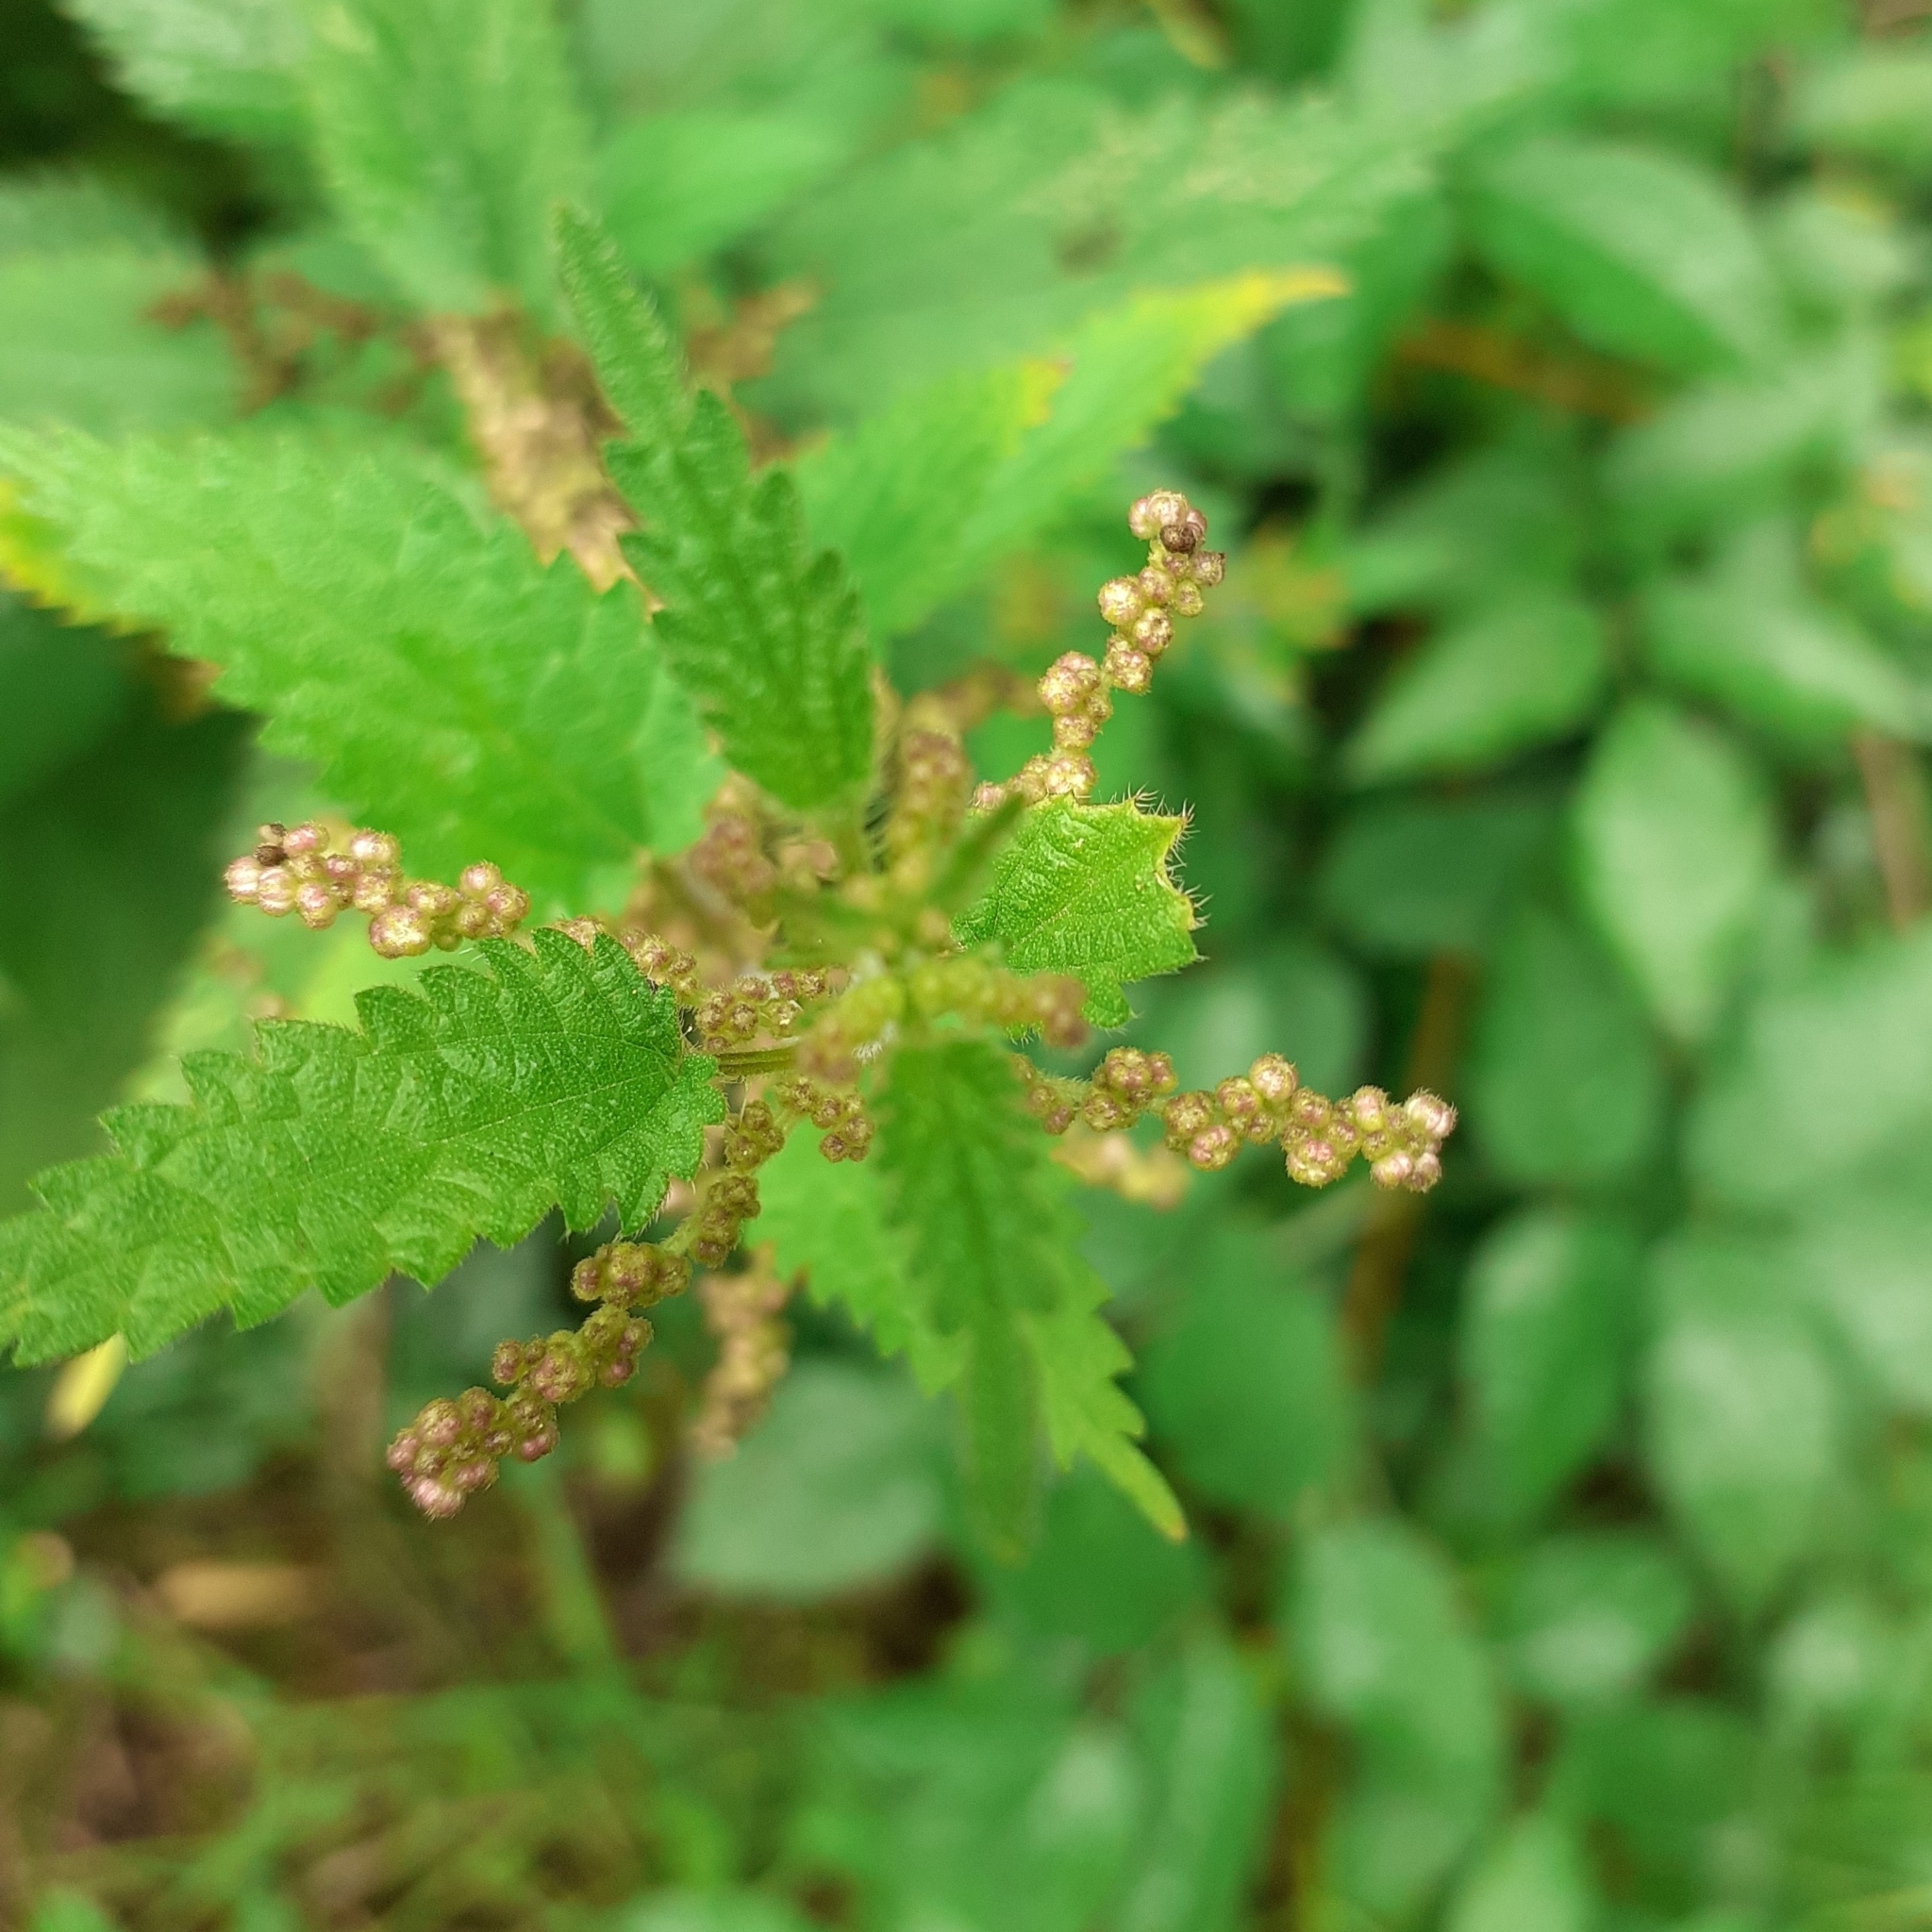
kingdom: Plantae
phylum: Tracheophyta
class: Magnoliopsida
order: Rosales
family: Urticaceae
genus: Urtica
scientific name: Urtica dioica
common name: Common nettle
